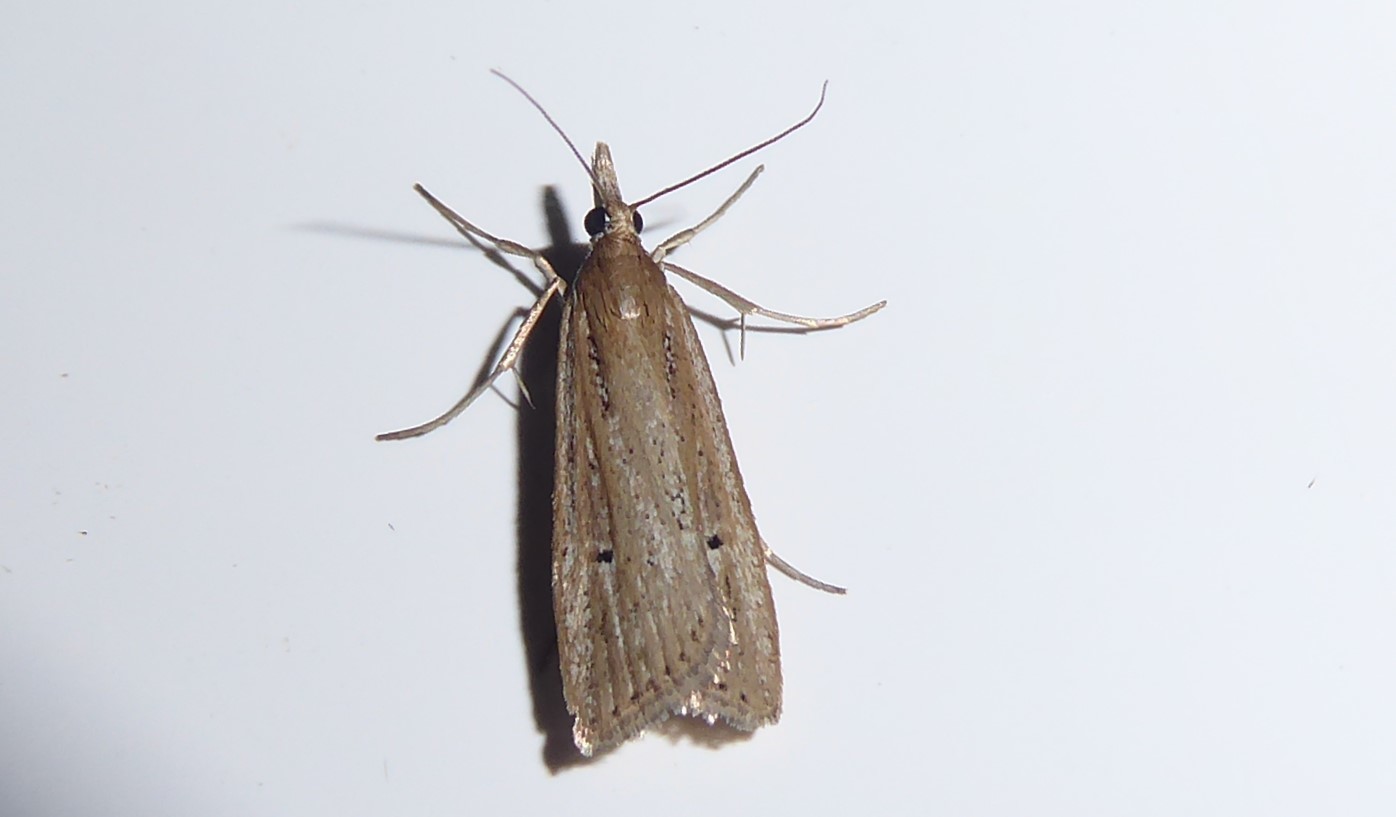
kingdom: Animalia
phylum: Arthropoda
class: Insecta
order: Lepidoptera
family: Crambidae
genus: Eudonia
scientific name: Eudonia sabulosella
